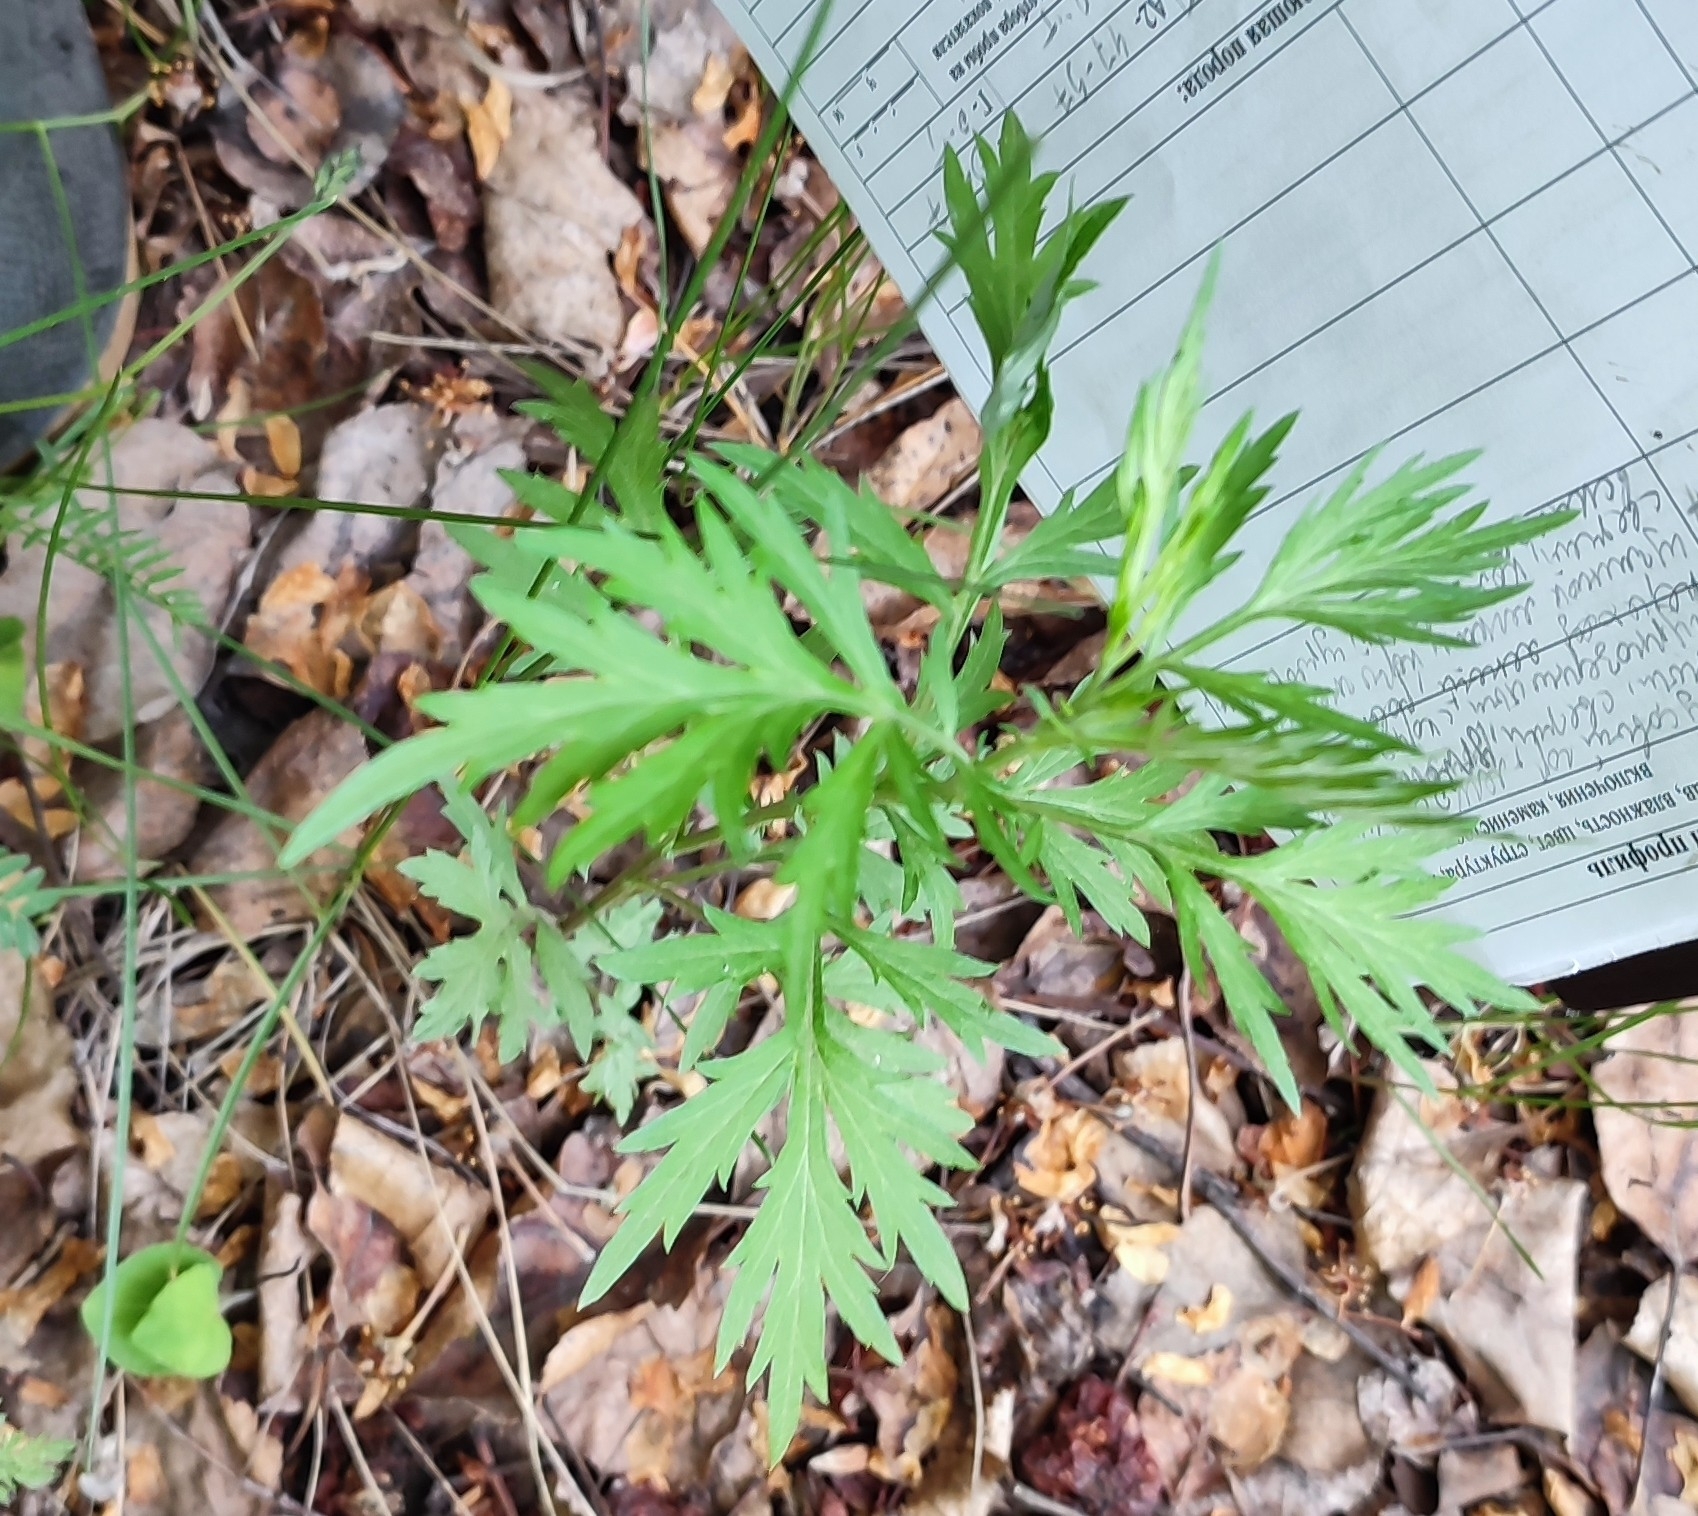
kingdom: Plantae
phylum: Tracheophyta
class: Magnoliopsida
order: Asterales
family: Asteraceae
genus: Artemisia
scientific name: Artemisia vulgaris
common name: Mugwort
